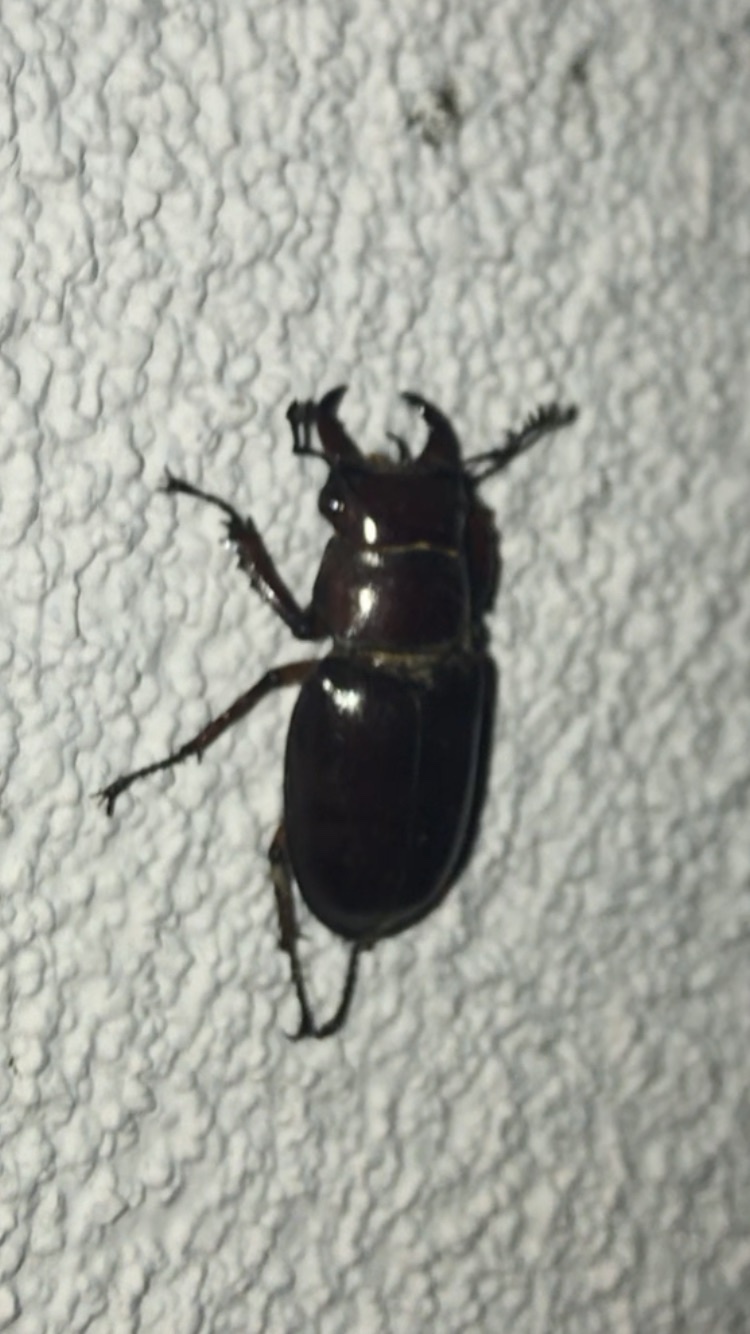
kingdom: Animalia
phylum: Arthropoda
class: Insecta
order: Coleoptera
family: Lucanidae
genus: Lucanus
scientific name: Lucanus capreolus
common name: Stag beetle
